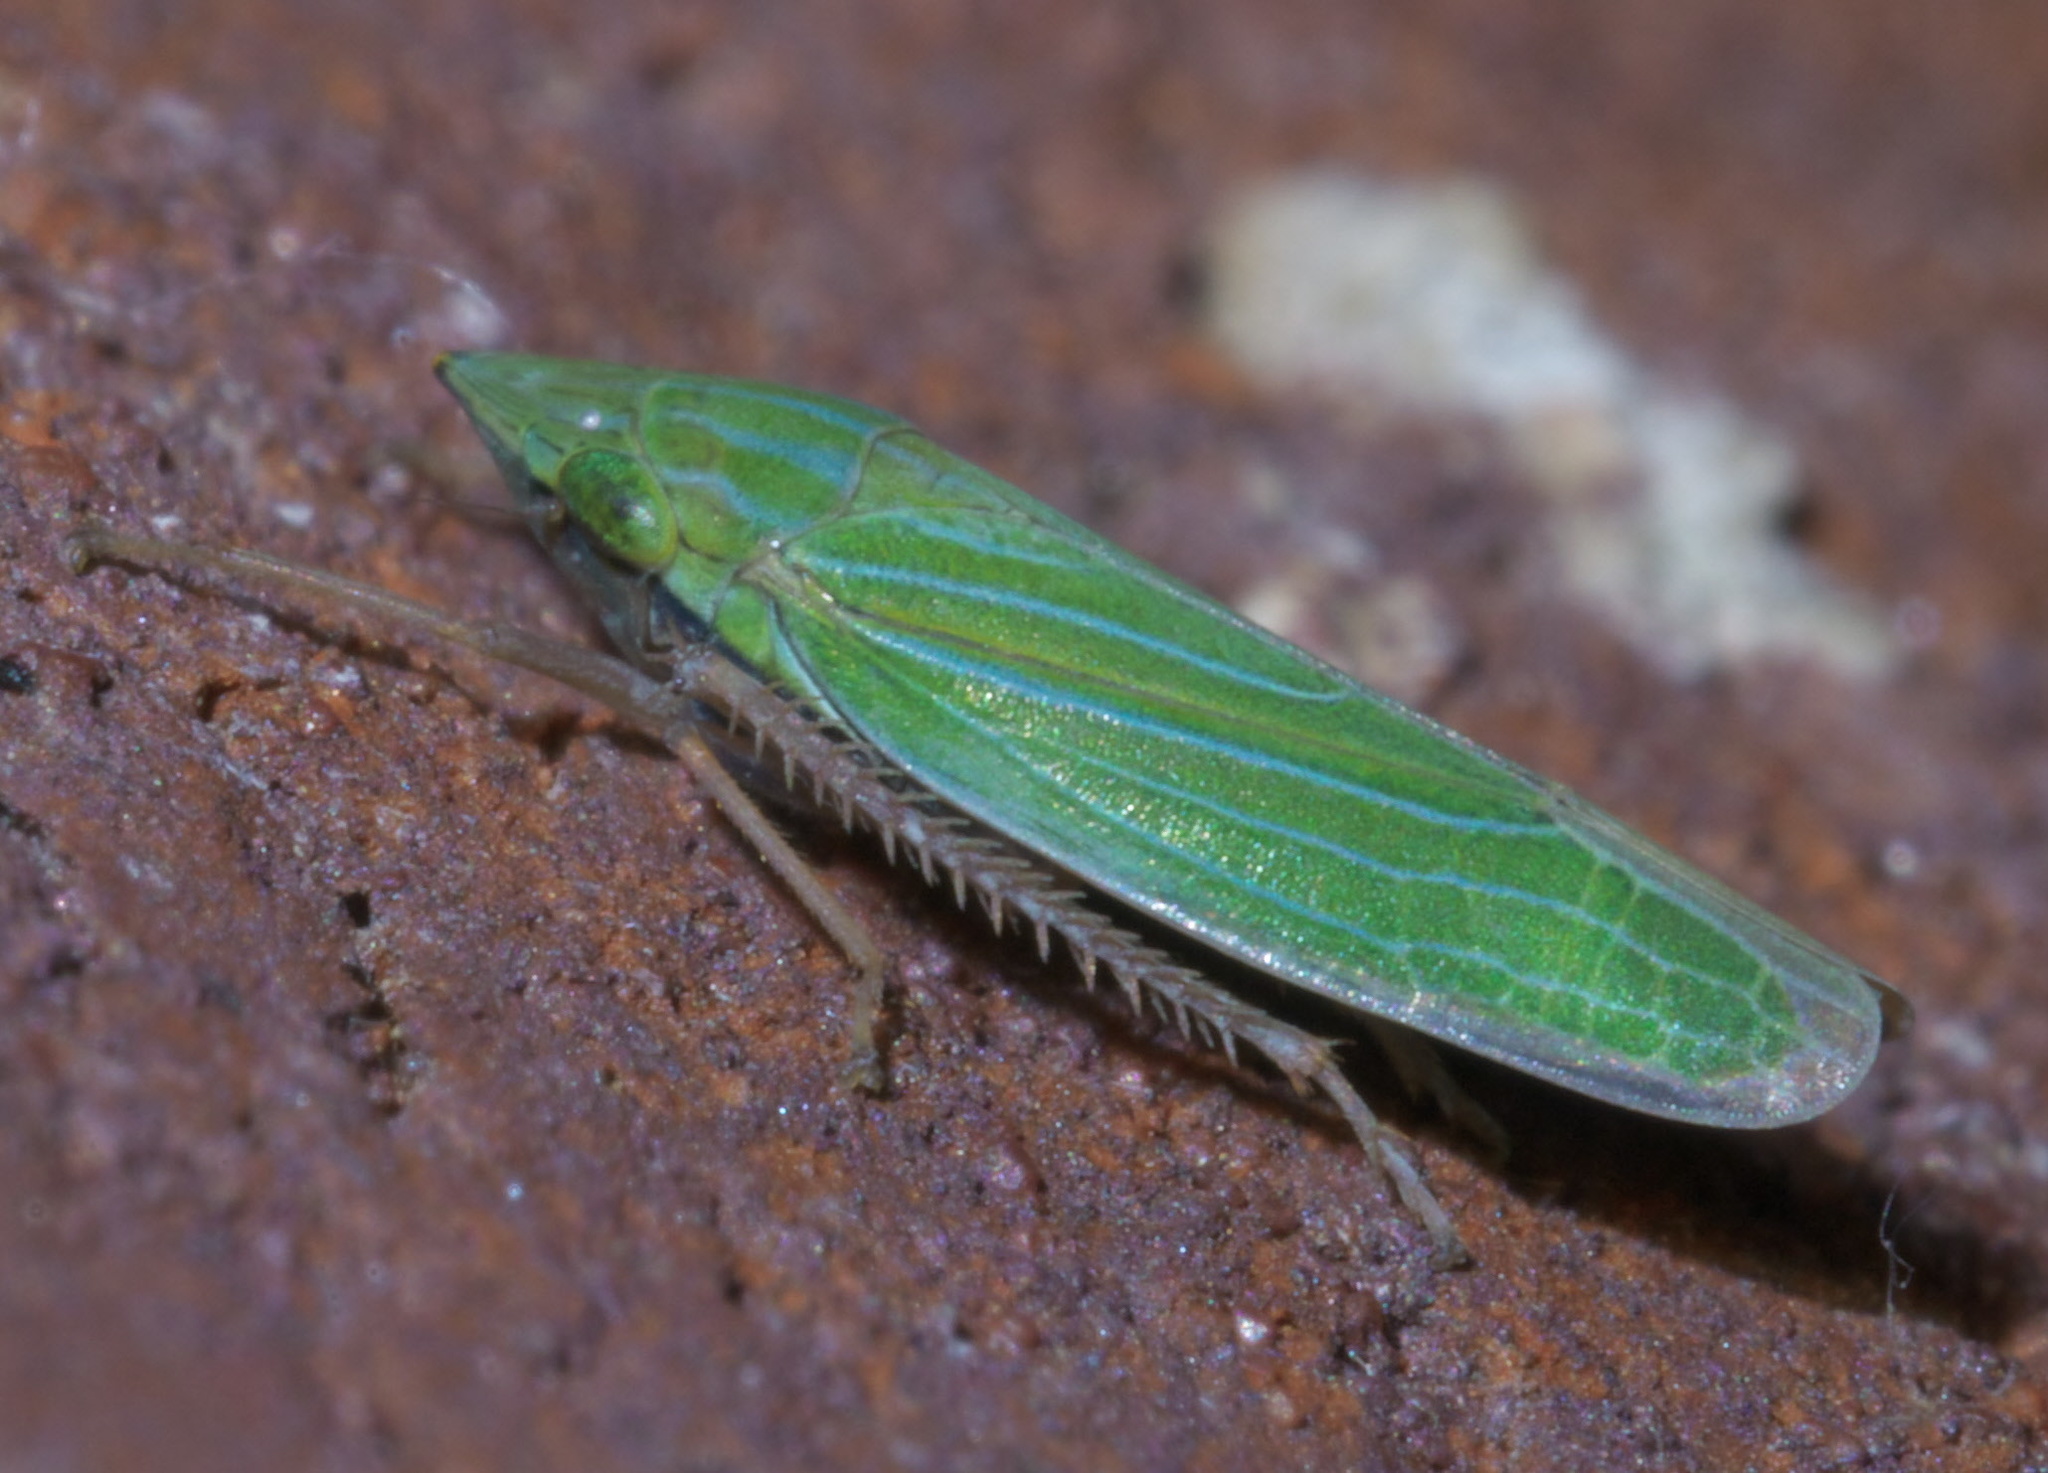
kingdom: Animalia
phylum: Arthropoda
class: Insecta
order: Hemiptera
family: Cicadellidae
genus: Draeculacephala
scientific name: Draeculacephala robinsoni
